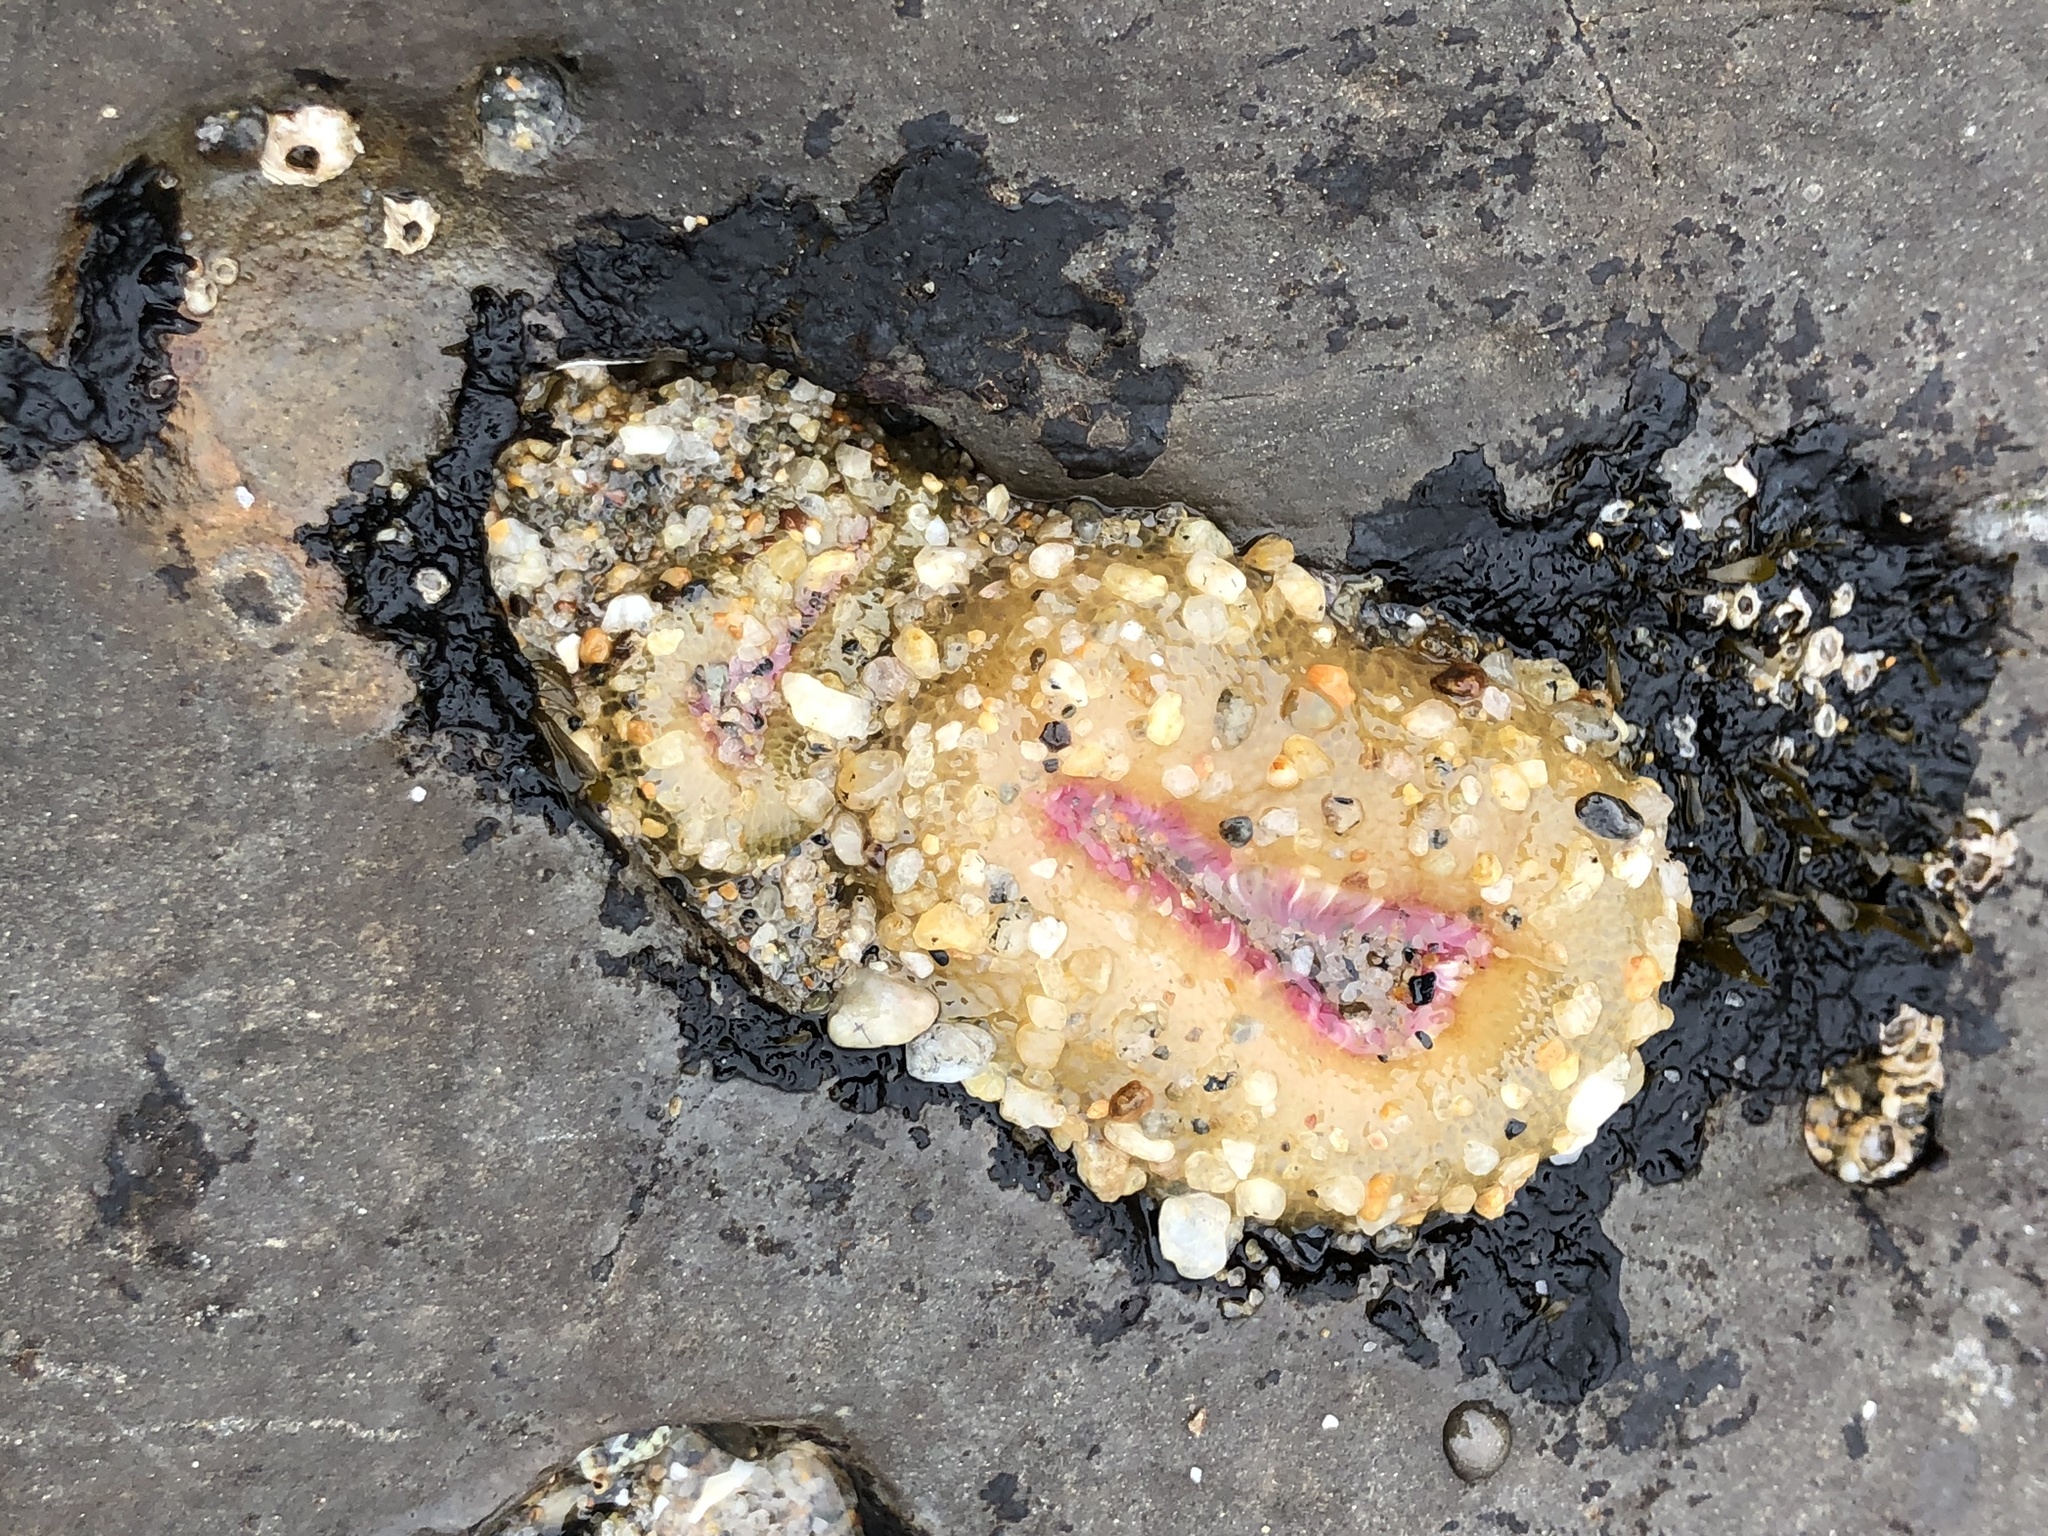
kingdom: Animalia
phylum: Cnidaria
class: Anthozoa
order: Actiniaria
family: Actiniidae
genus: Anthopleura
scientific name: Anthopleura elegantissima
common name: Clonal anemone
